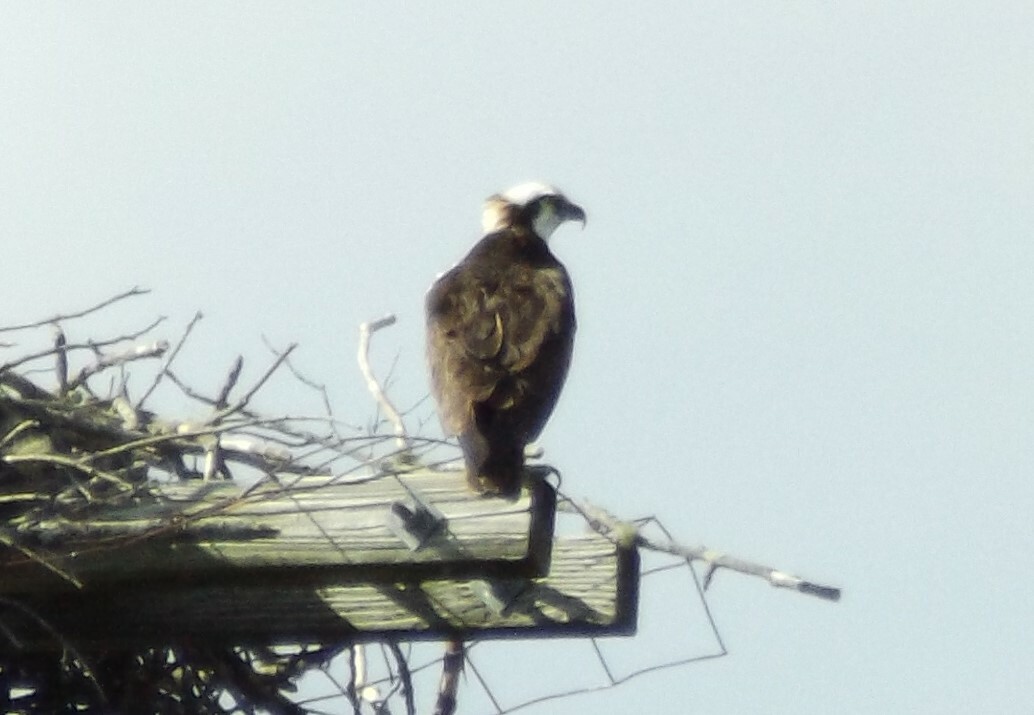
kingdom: Animalia
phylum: Chordata
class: Aves
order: Accipitriformes
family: Pandionidae
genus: Pandion
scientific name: Pandion haliaetus
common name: Osprey
